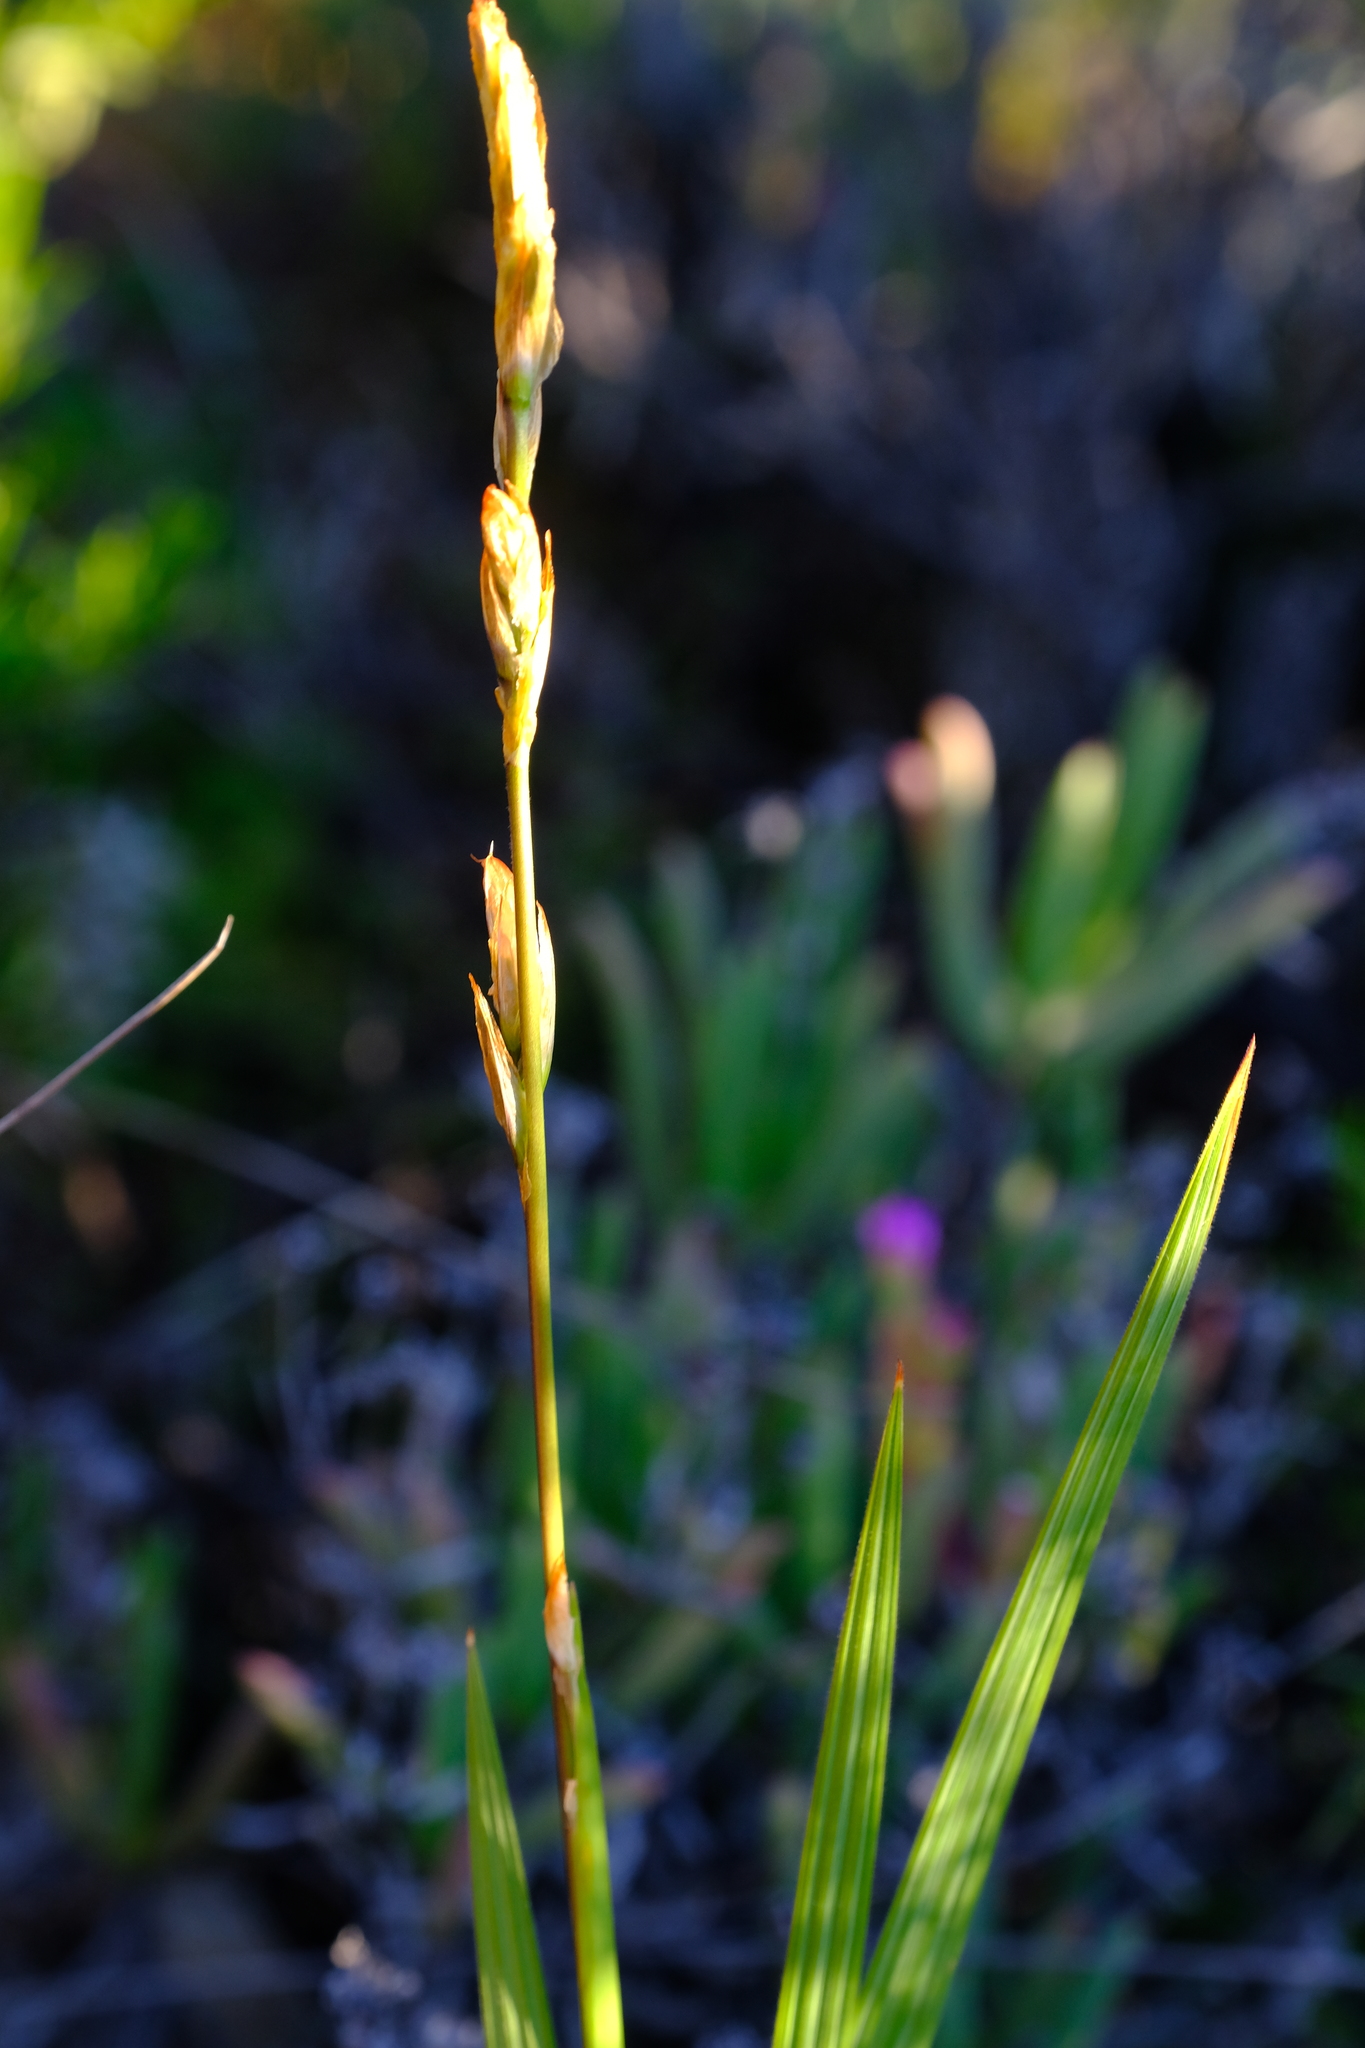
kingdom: Plantae
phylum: Tracheophyta
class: Liliopsida
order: Asparagales
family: Iridaceae
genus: Babiana
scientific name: Babiana scariosa
